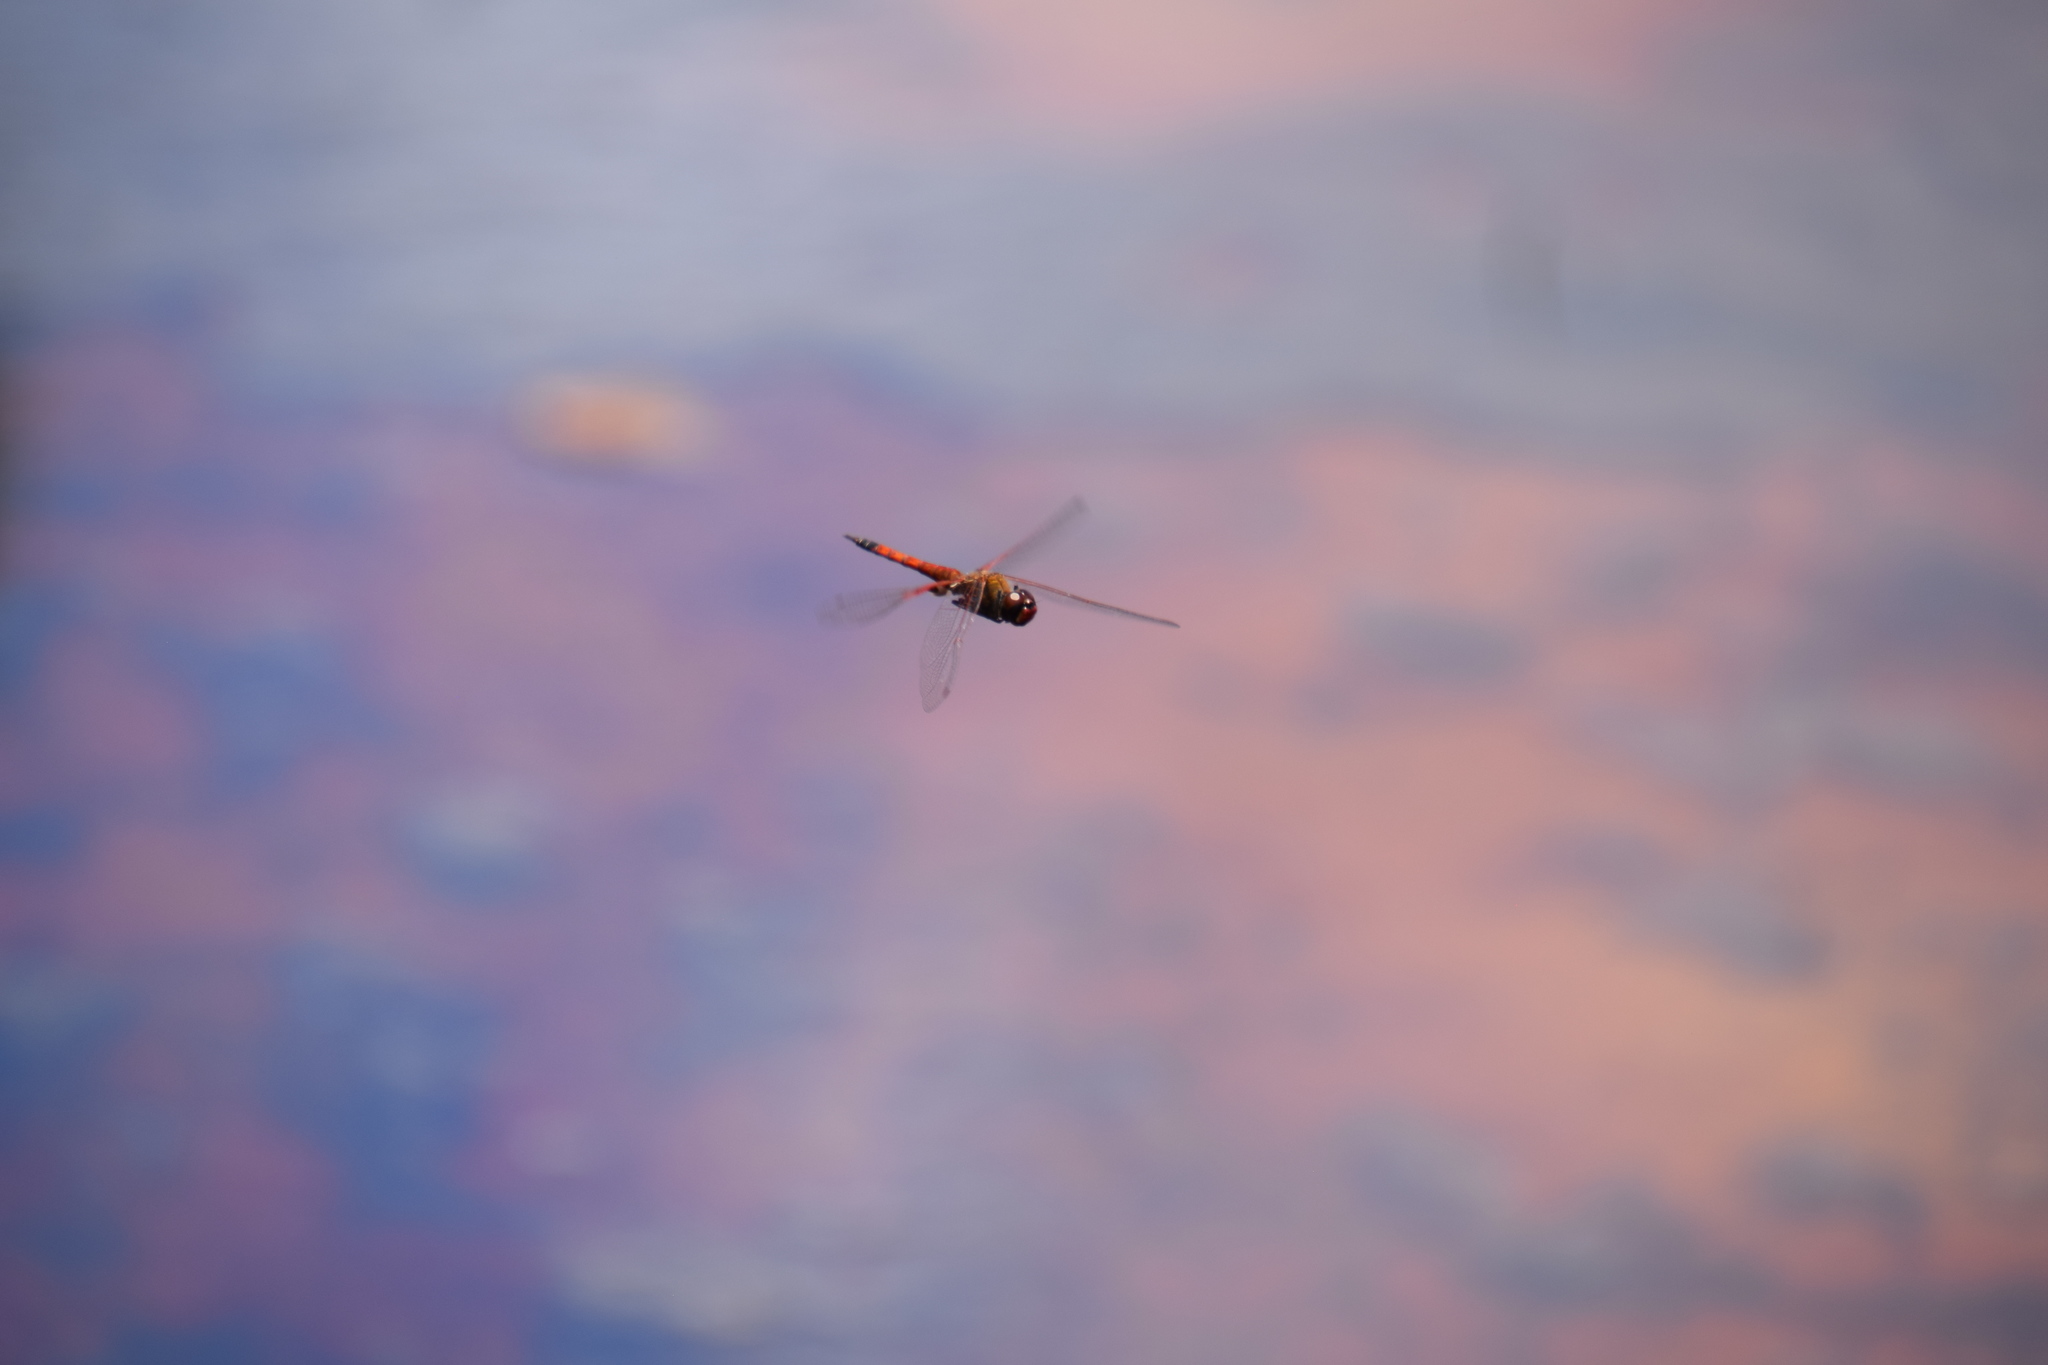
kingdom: Animalia
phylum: Arthropoda
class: Insecta
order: Odonata
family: Libellulidae
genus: Tramea
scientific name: Tramea loewii
